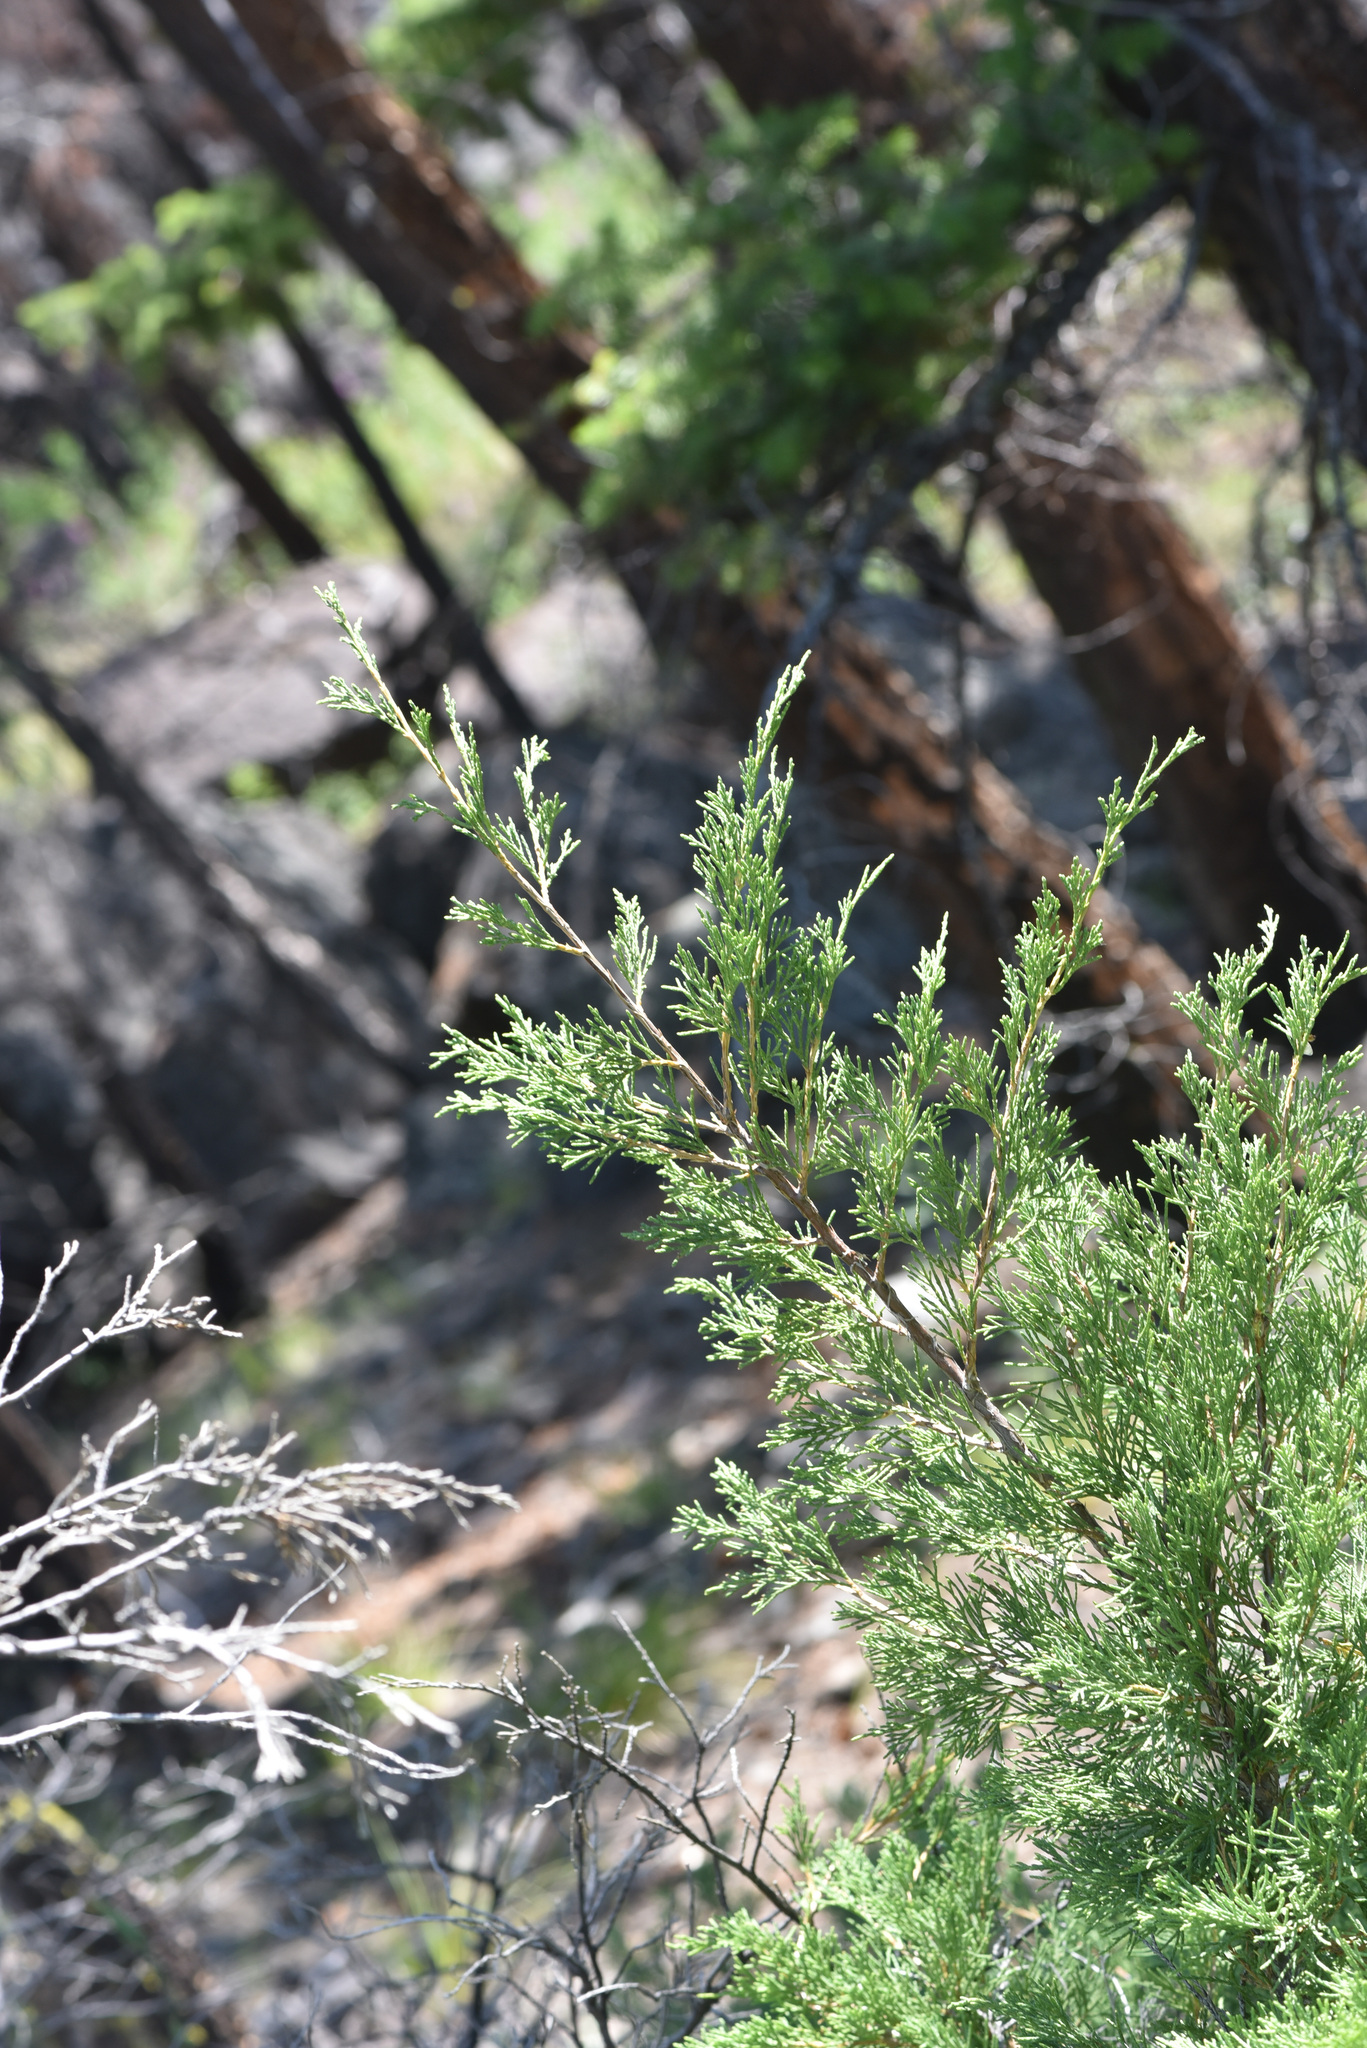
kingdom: Plantae
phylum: Tracheophyta
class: Pinopsida
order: Pinales
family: Cupressaceae
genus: Juniperus
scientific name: Juniperus scopulorum
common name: Rocky mountain juniper
